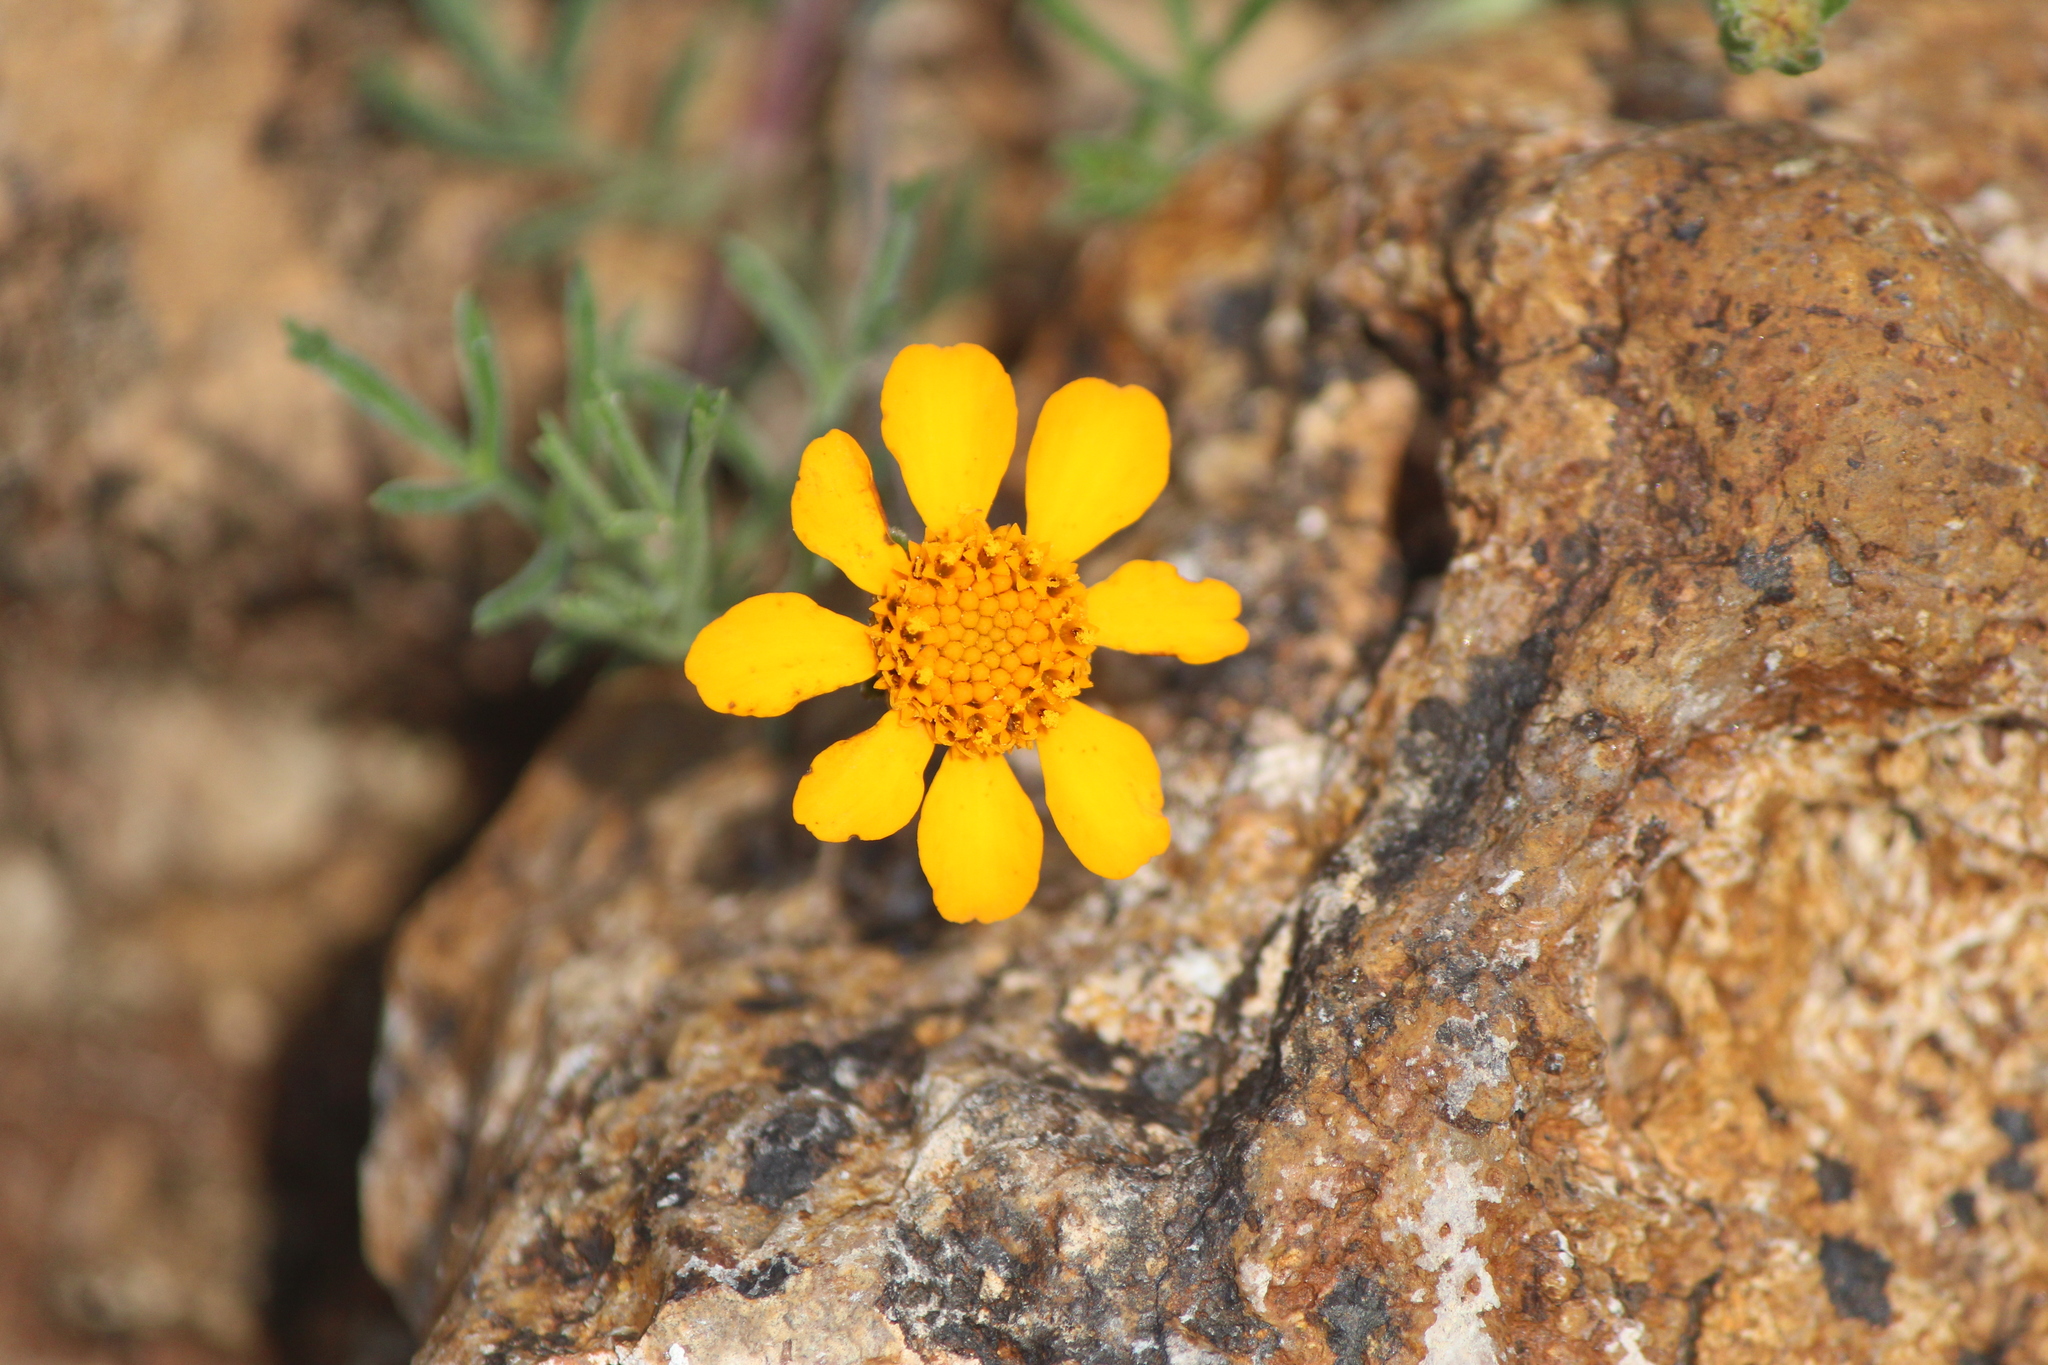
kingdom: Plantae
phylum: Tracheophyta
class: Magnoliopsida
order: Asterales
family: Asteraceae
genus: Dyssodia
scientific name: Dyssodia pinnata
